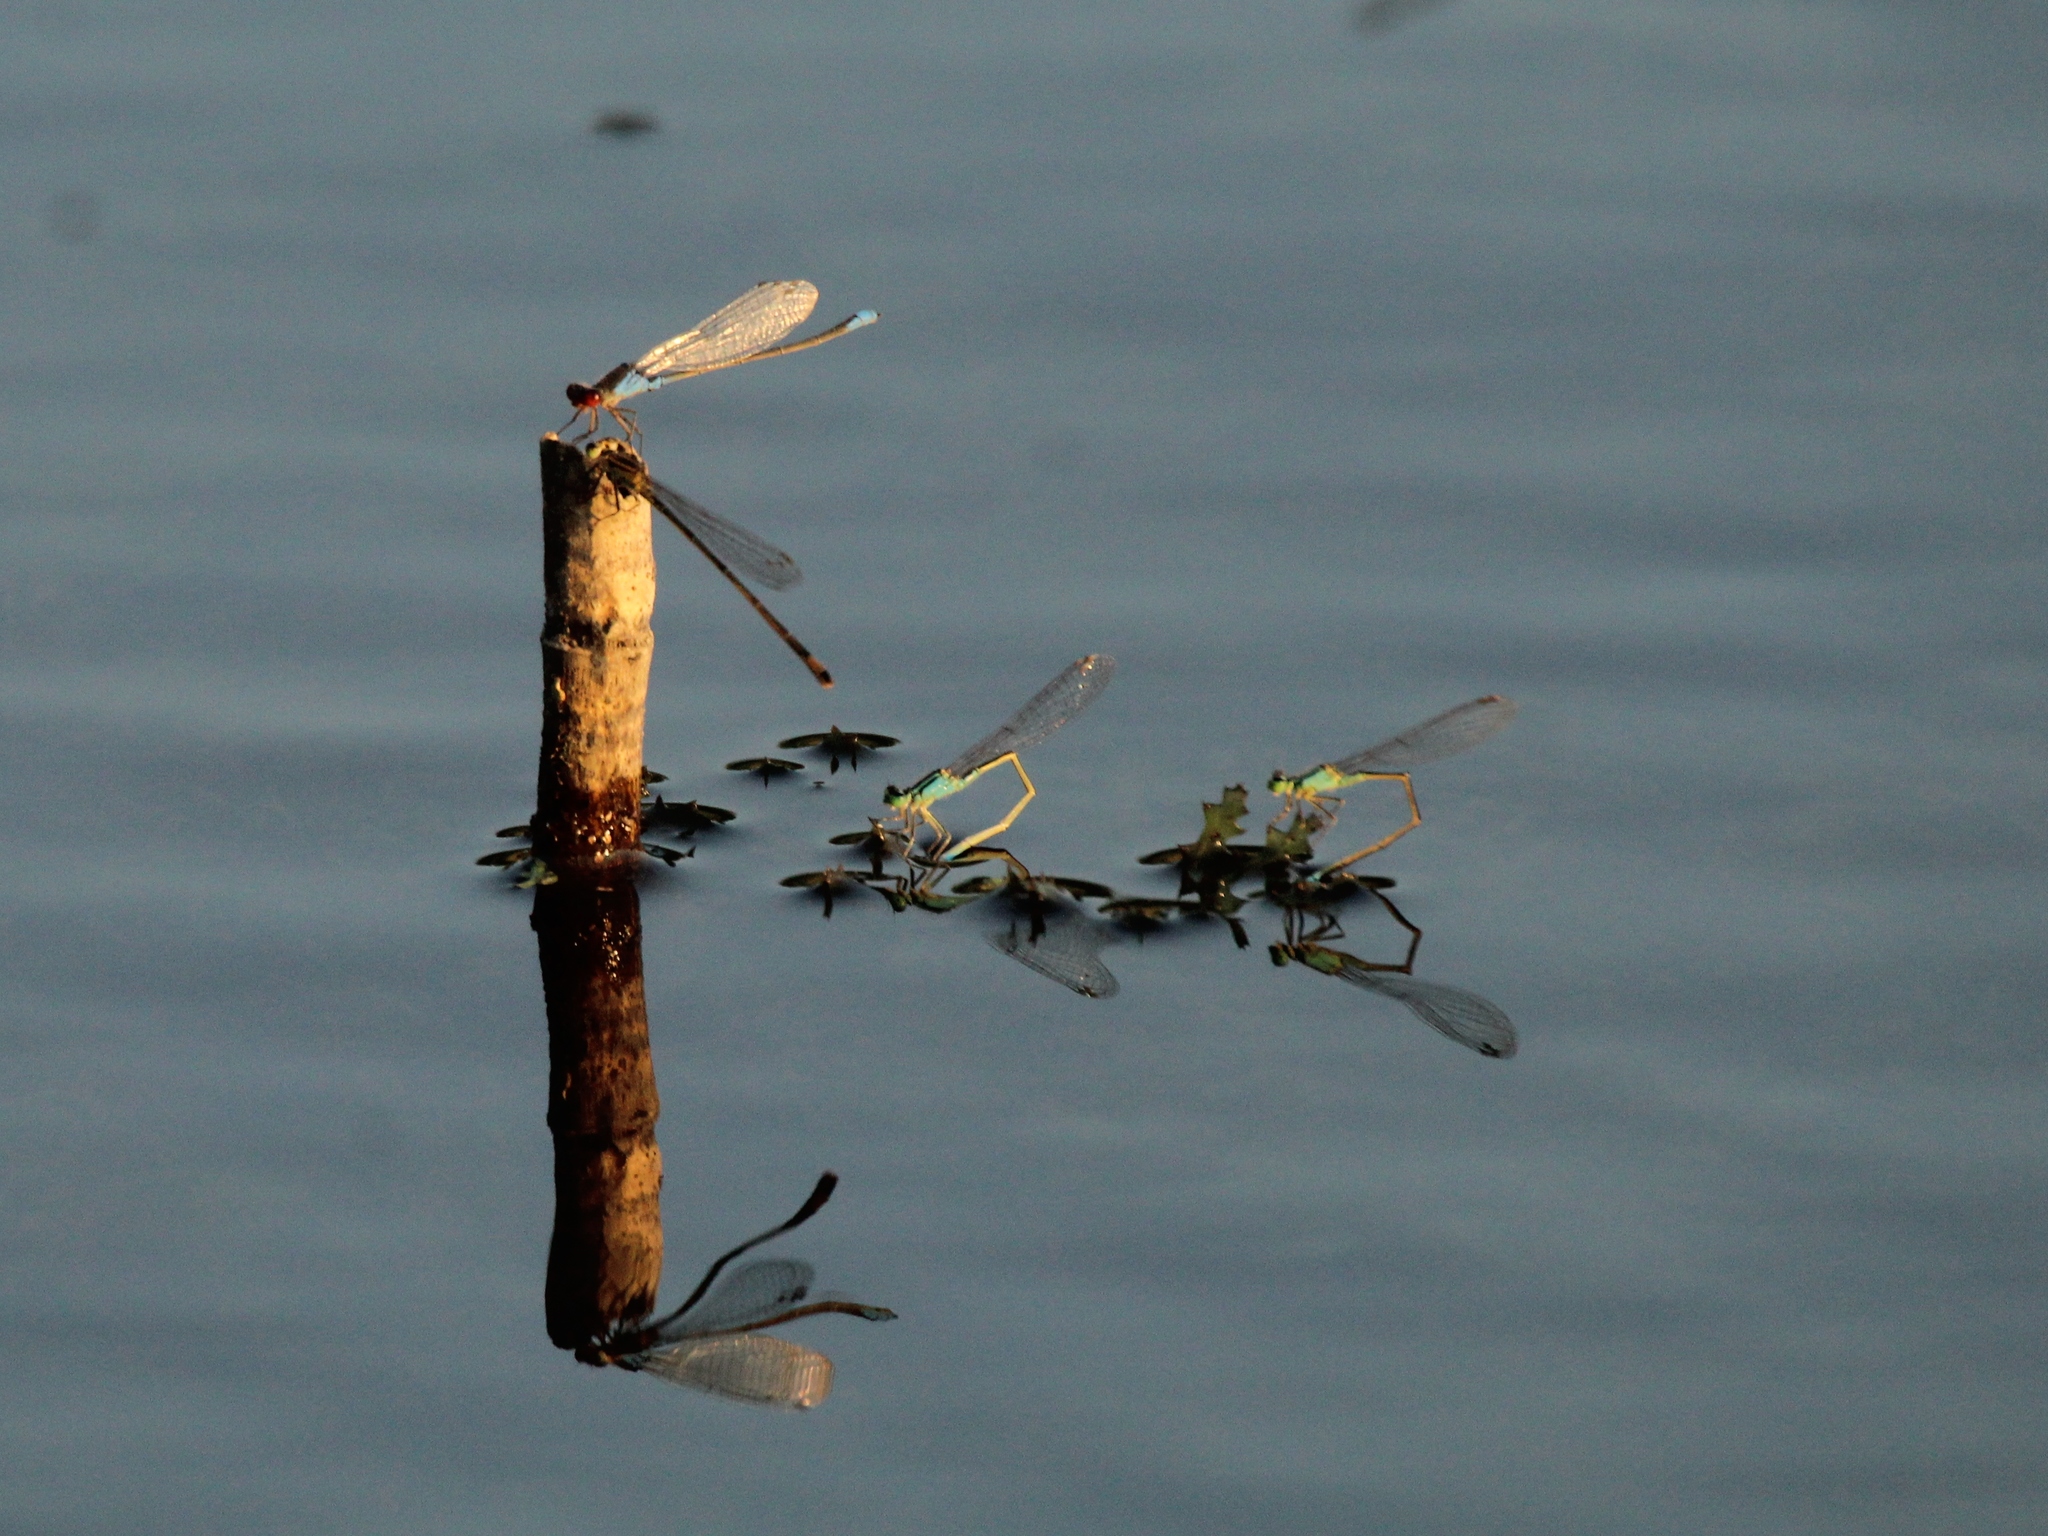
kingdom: Animalia
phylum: Arthropoda
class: Insecta
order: Odonata
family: Coenagrionidae
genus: Erythromma
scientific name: Erythromma viridulum
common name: Small red-eyed damselfly
